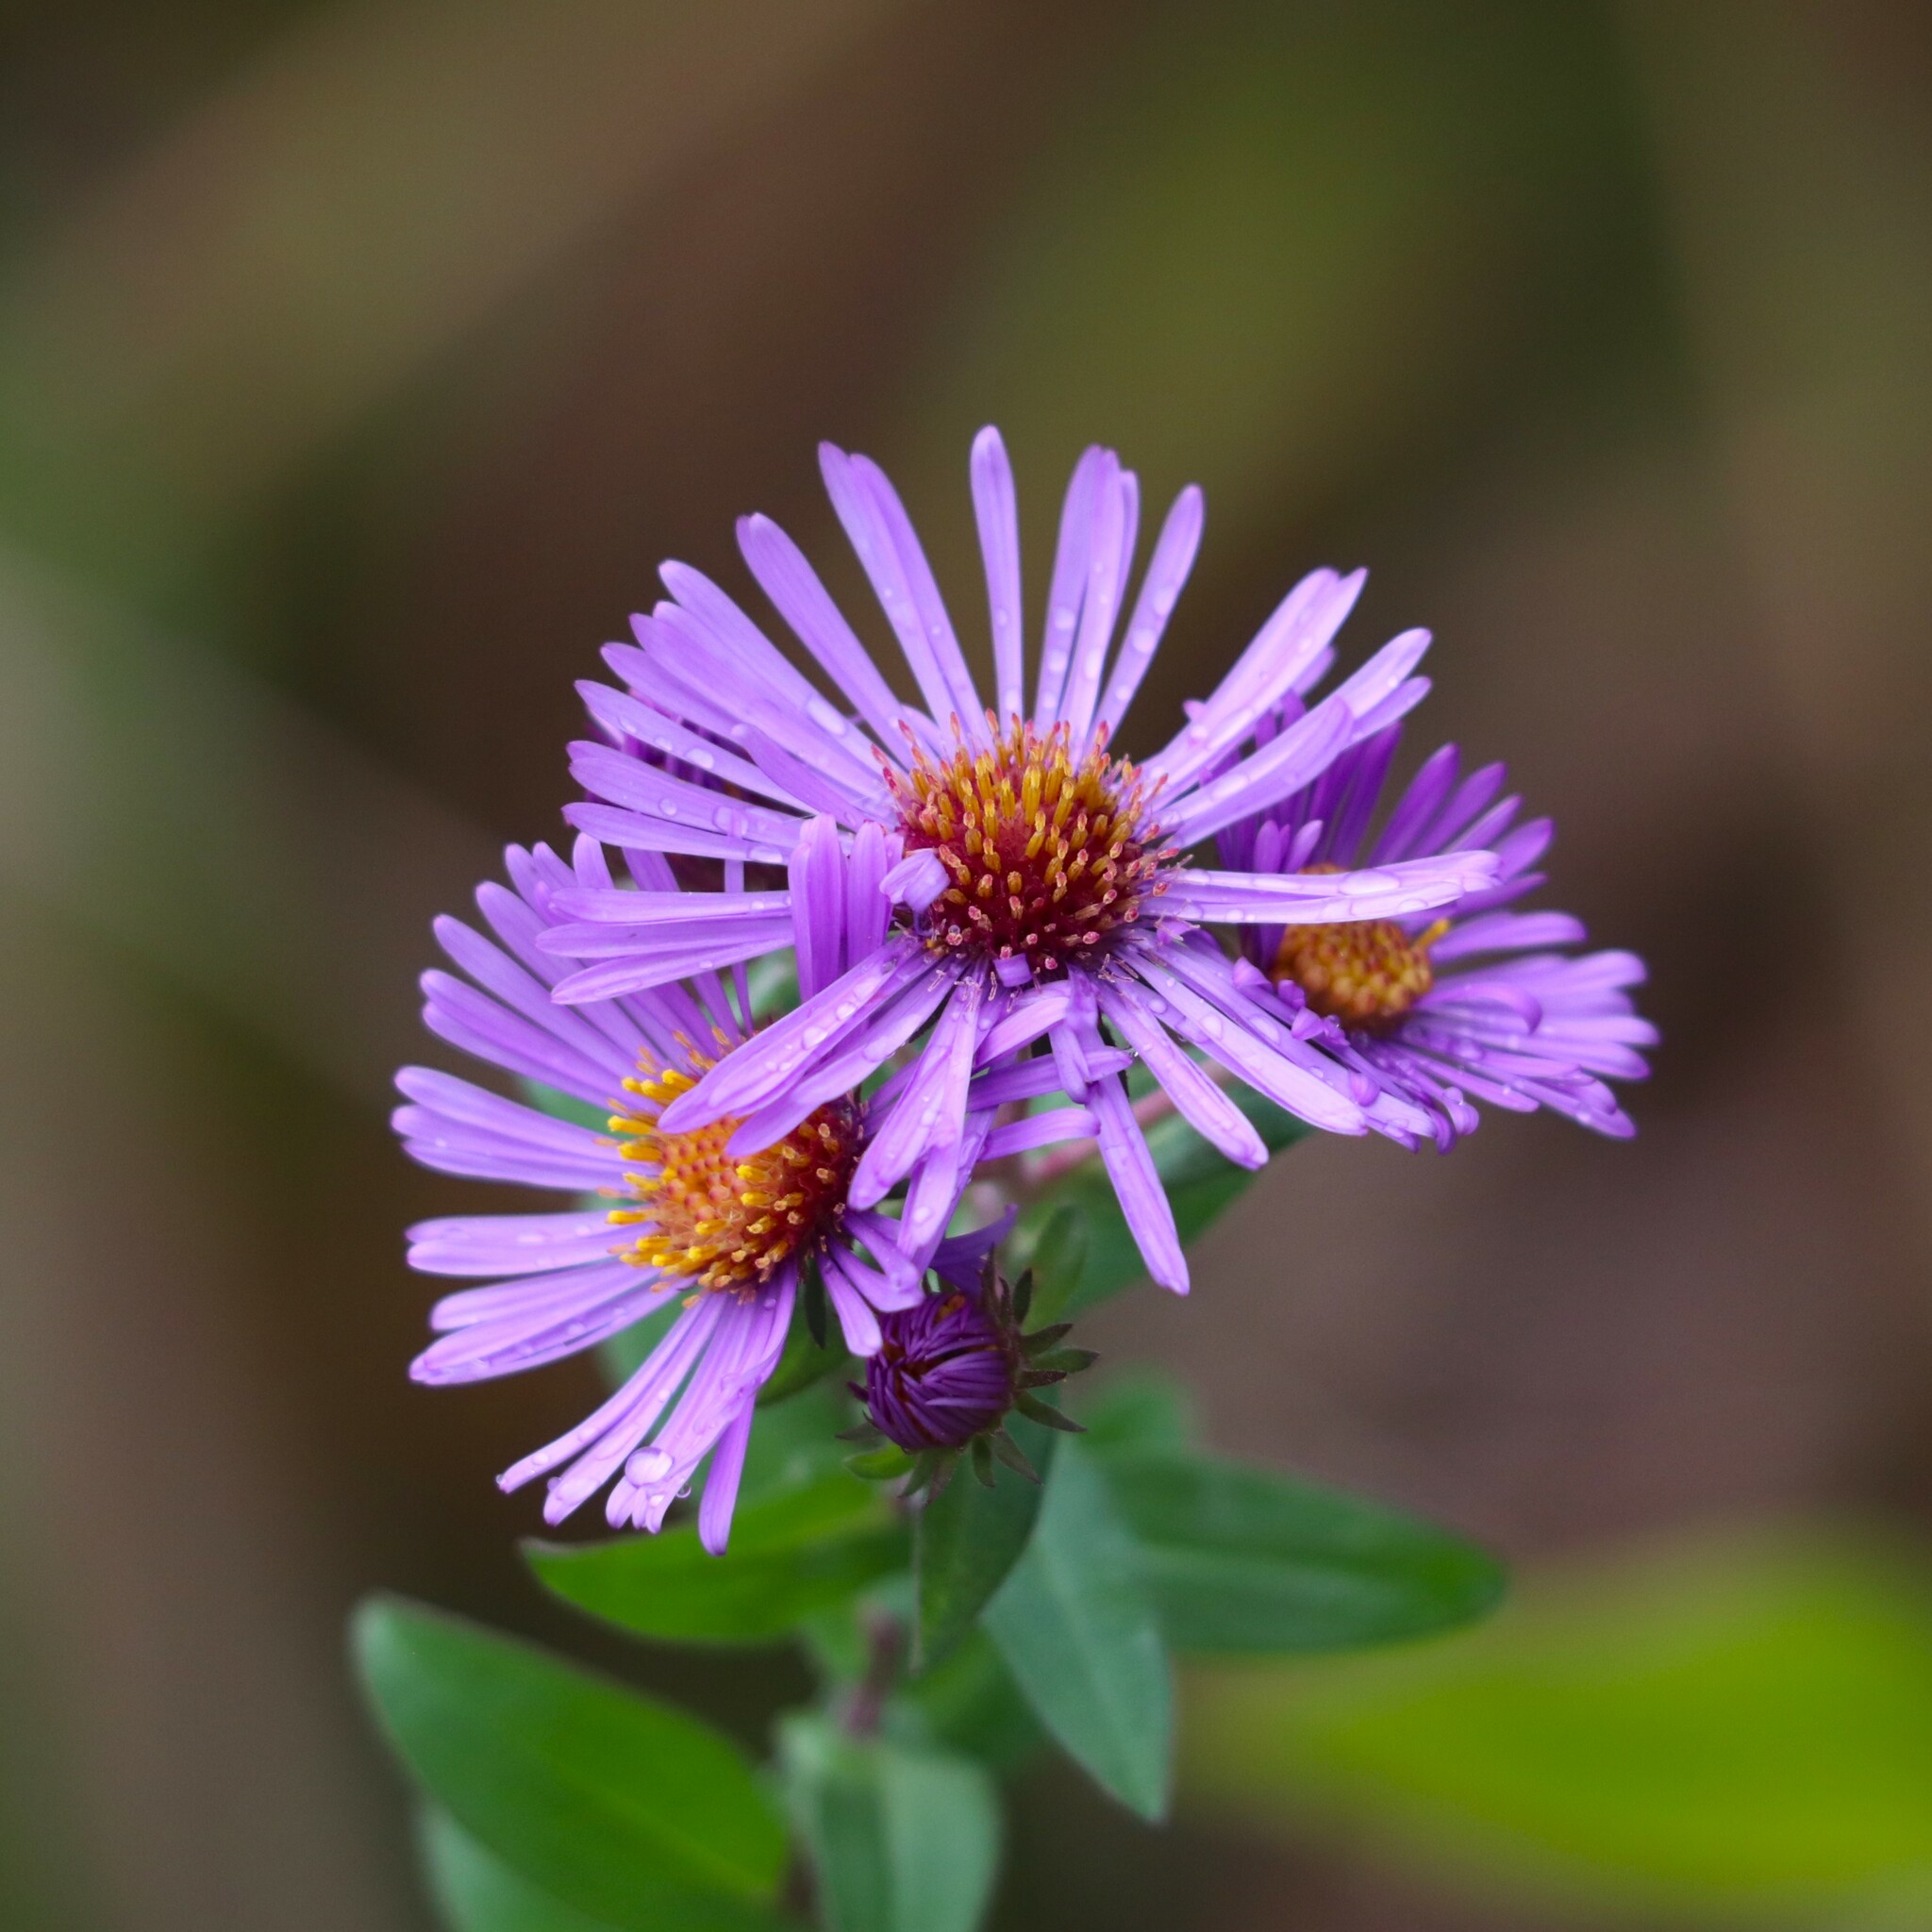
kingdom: Plantae
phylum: Tracheophyta
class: Magnoliopsida
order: Asterales
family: Asteraceae
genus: Symphyotrichum
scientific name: Symphyotrichum novae-angliae
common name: Michaelmas daisy
